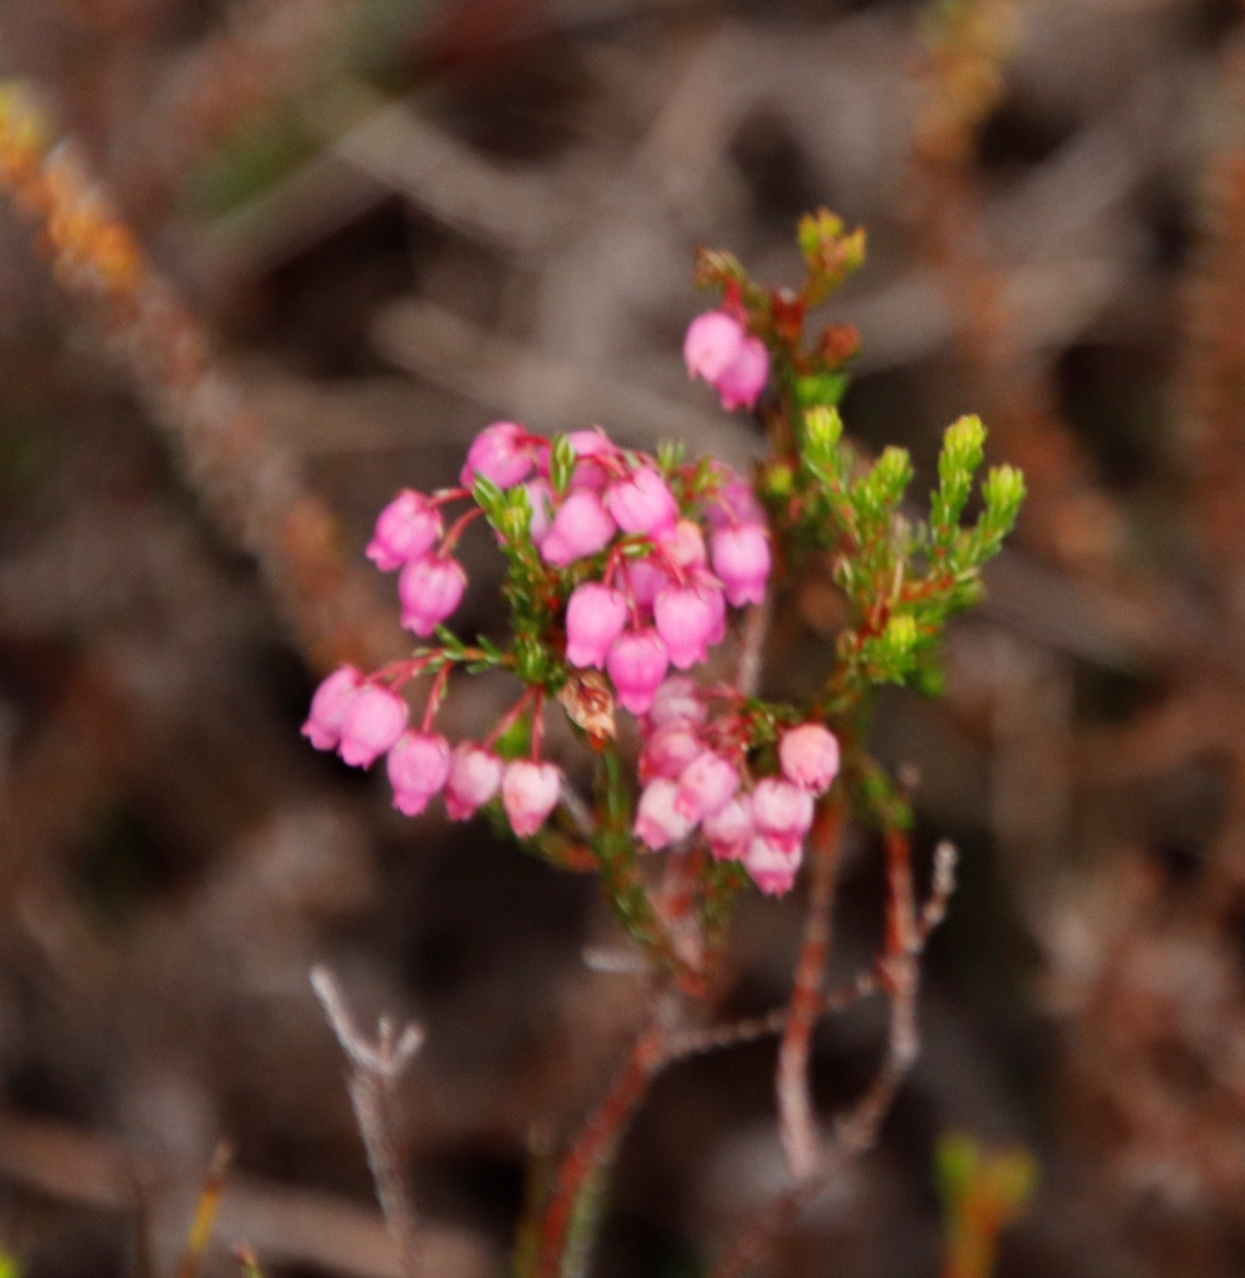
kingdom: Plantae
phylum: Tracheophyta
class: Magnoliopsida
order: Ericales
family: Ericaceae
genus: Erica
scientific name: Erica laeta
